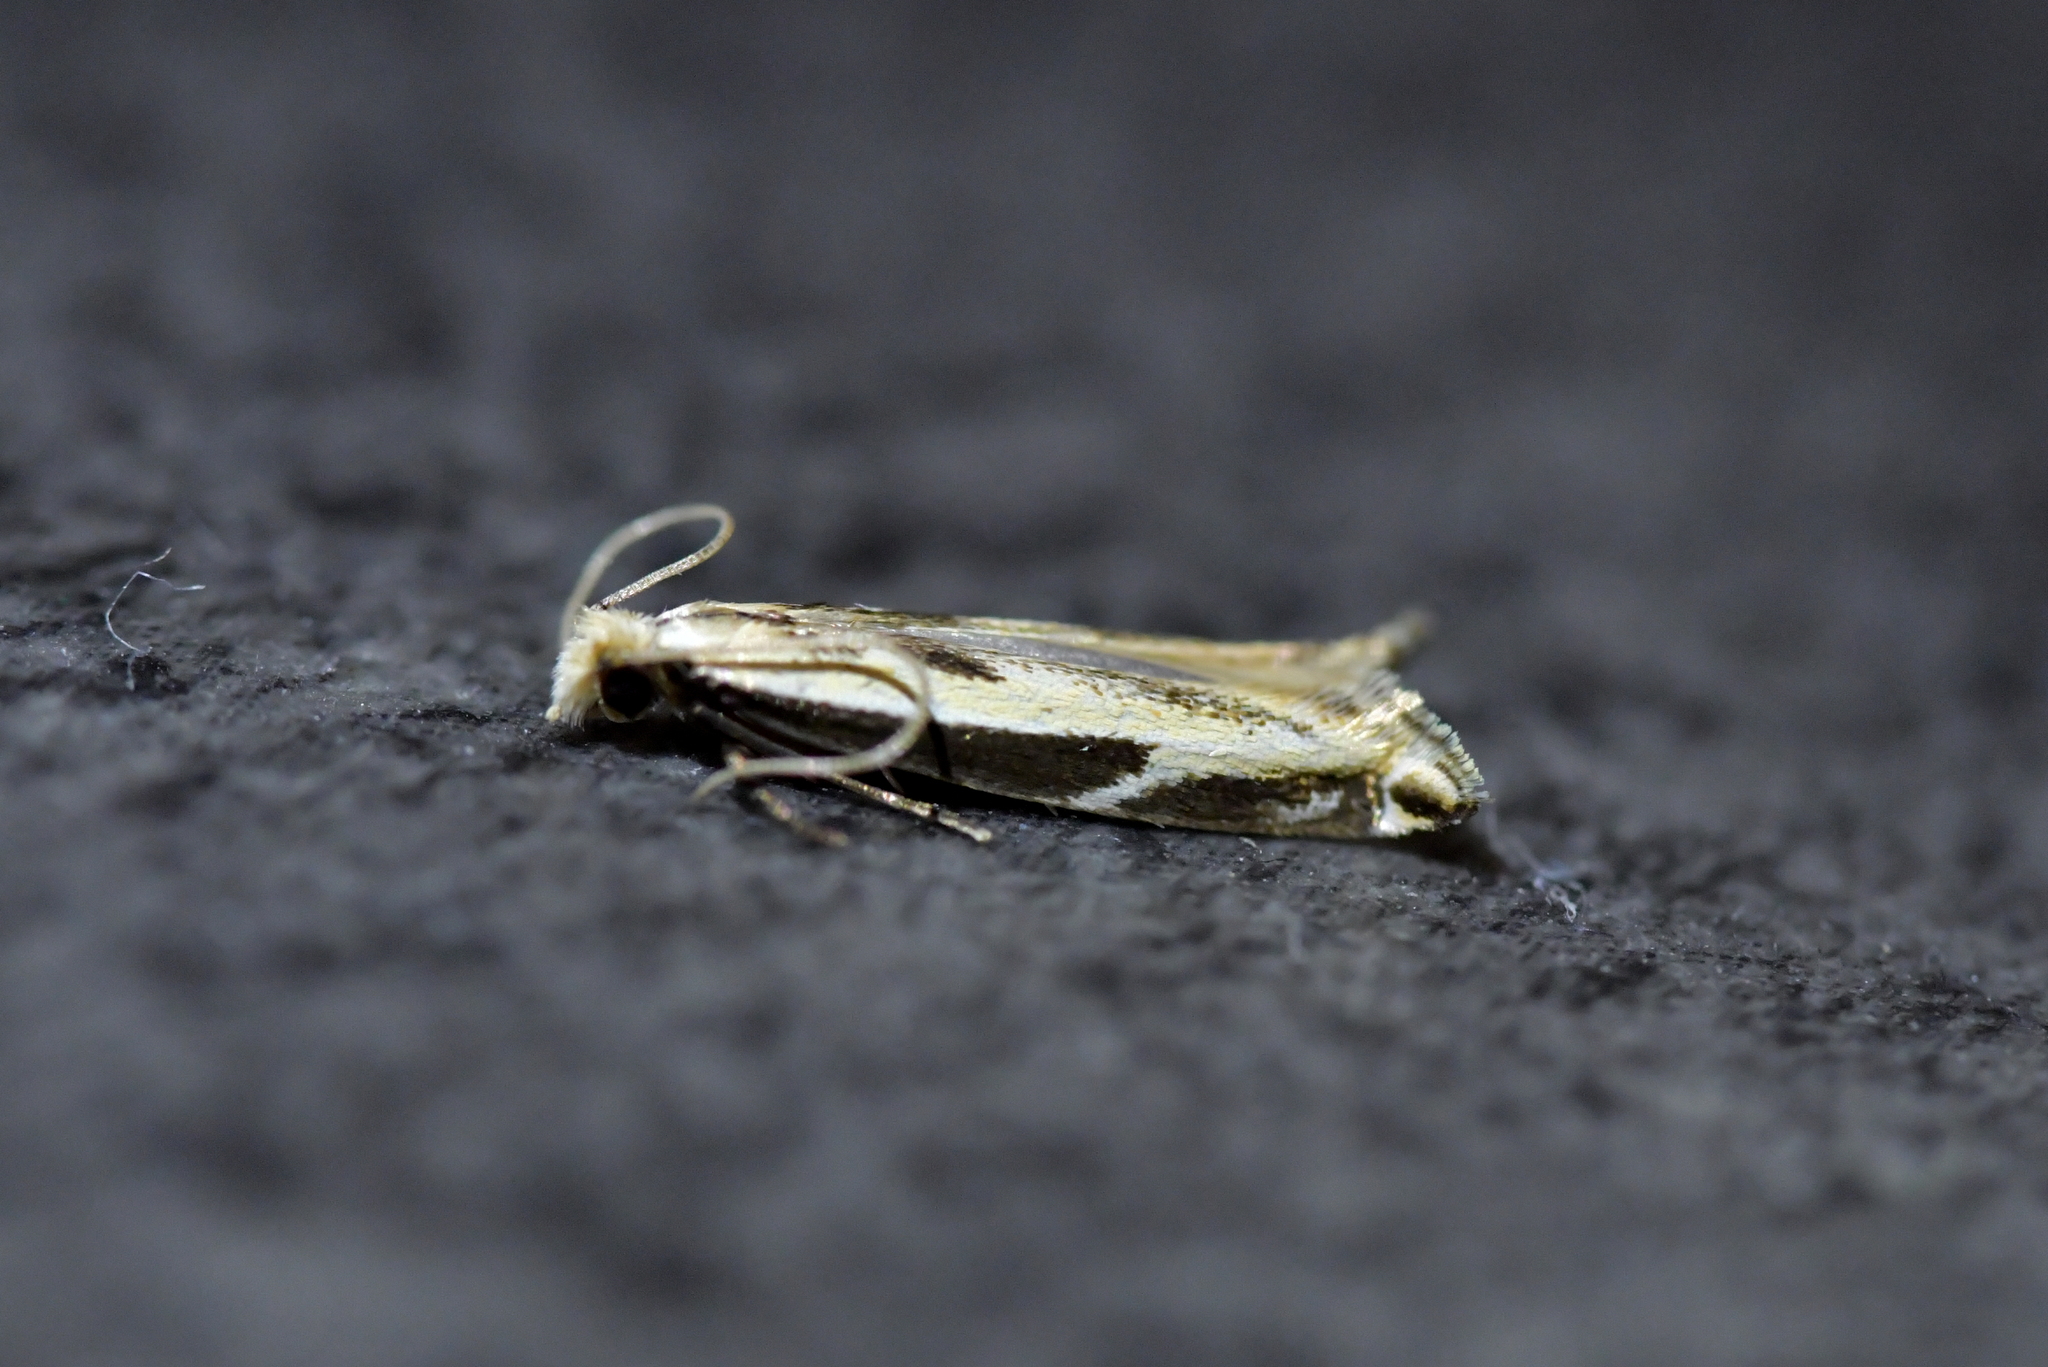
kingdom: Animalia
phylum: Arthropoda
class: Insecta
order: Lepidoptera
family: Tineidae
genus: Erechthias
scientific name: Erechthias terminella
